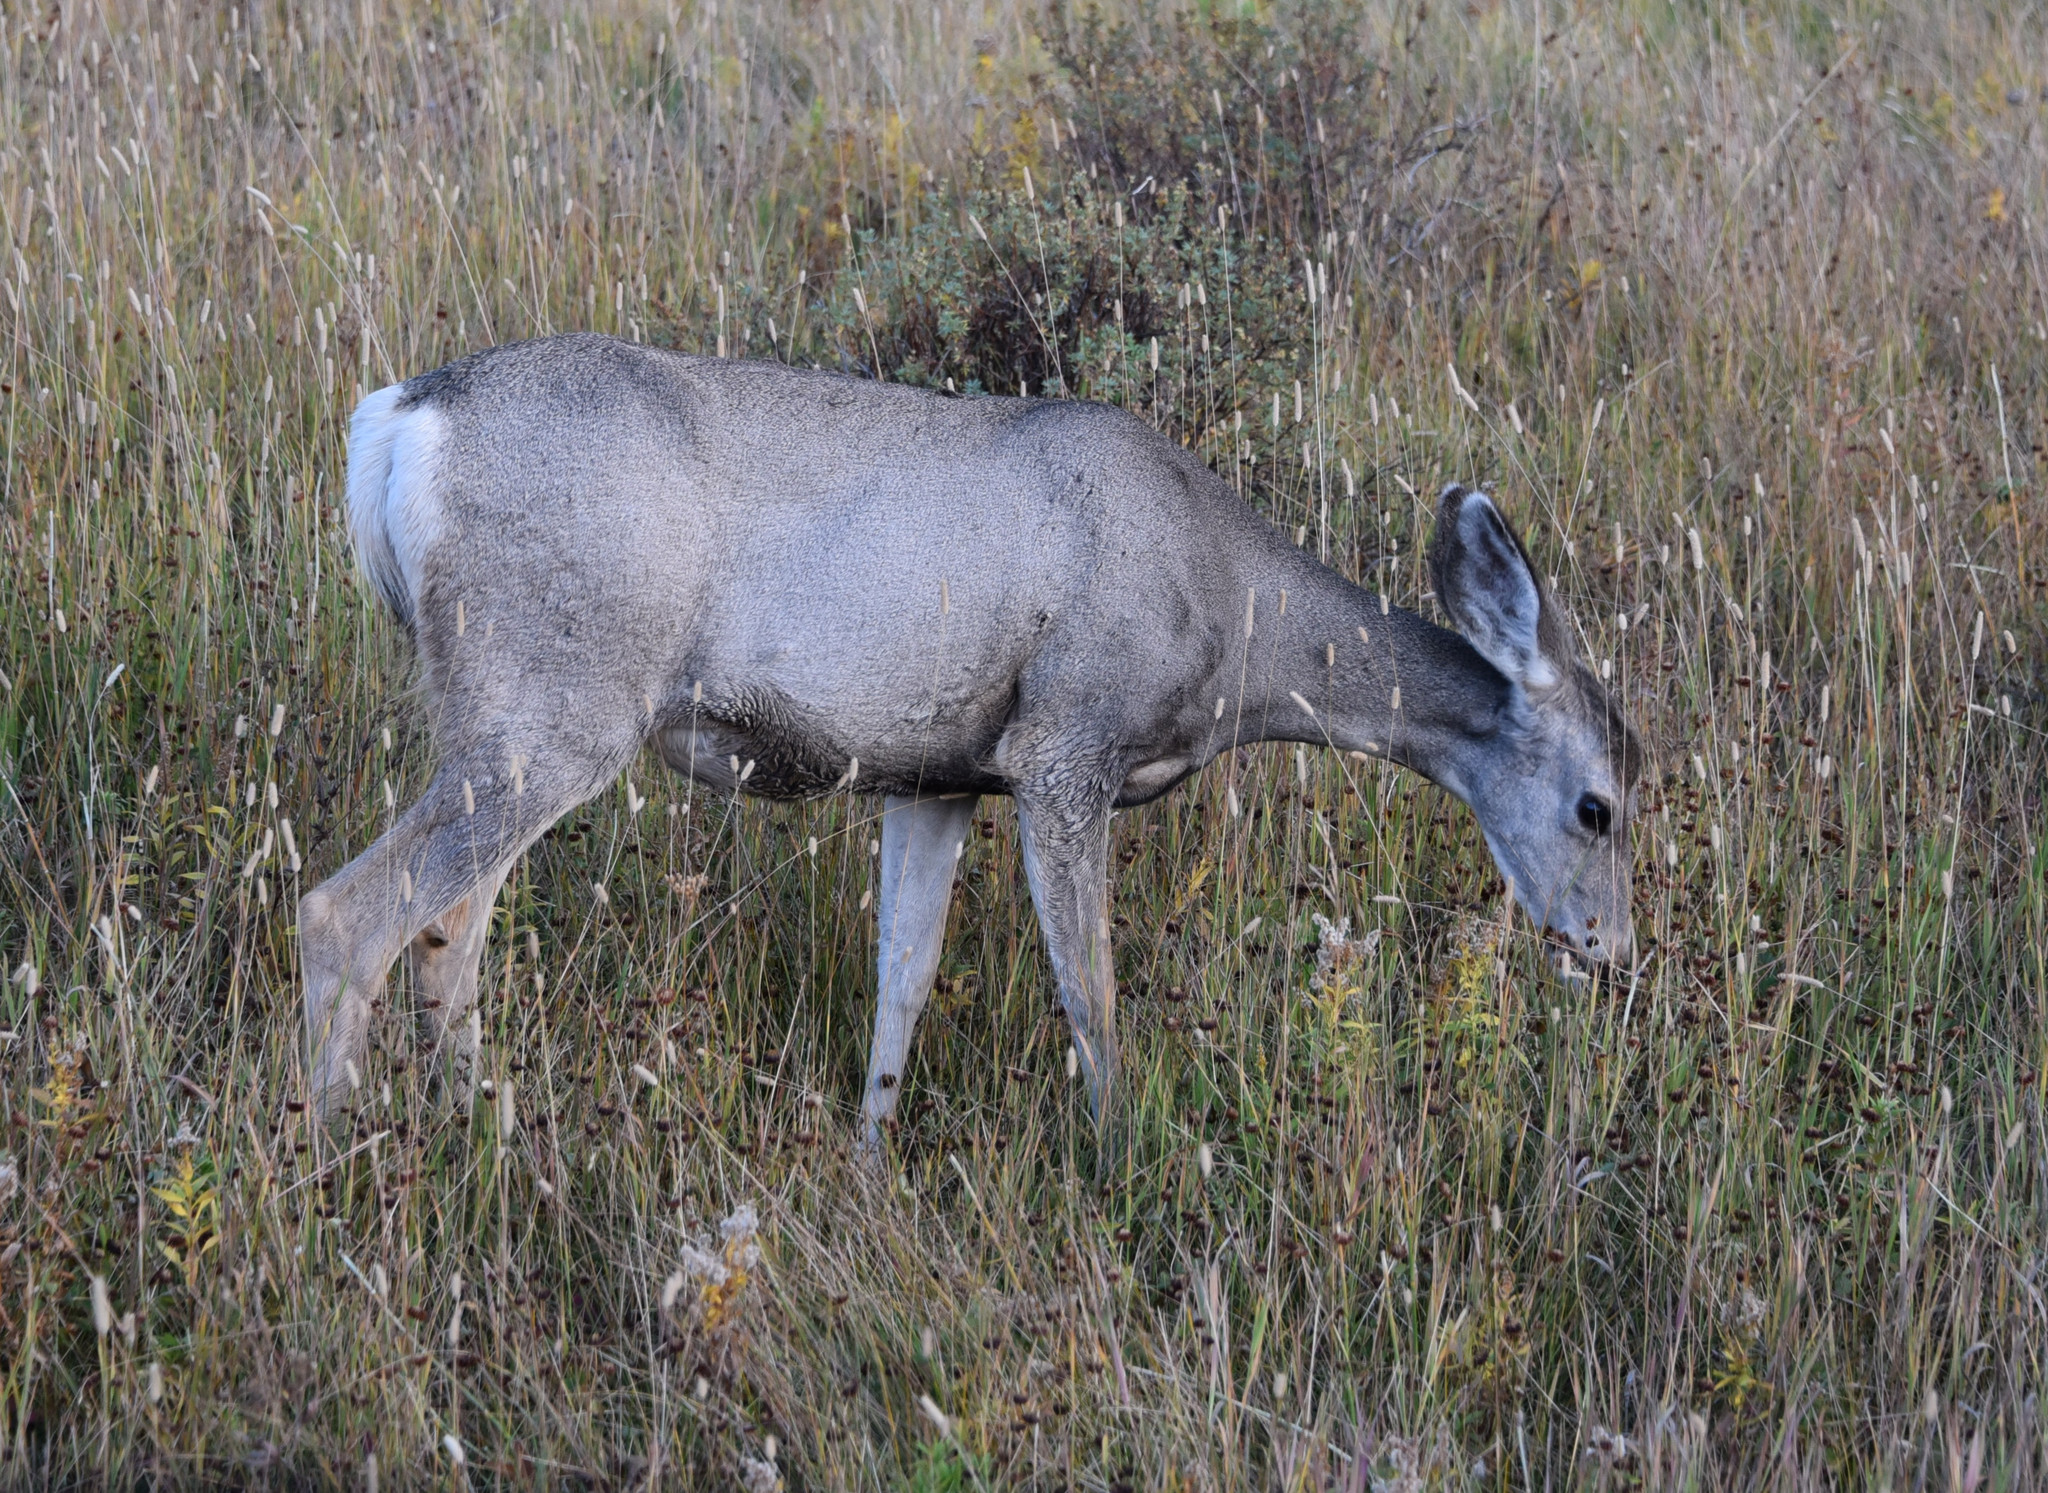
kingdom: Animalia
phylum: Chordata
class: Mammalia
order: Artiodactyla
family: Cervidae
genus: Odocoileus
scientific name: Odocoileus hemionus
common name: Mule deer
